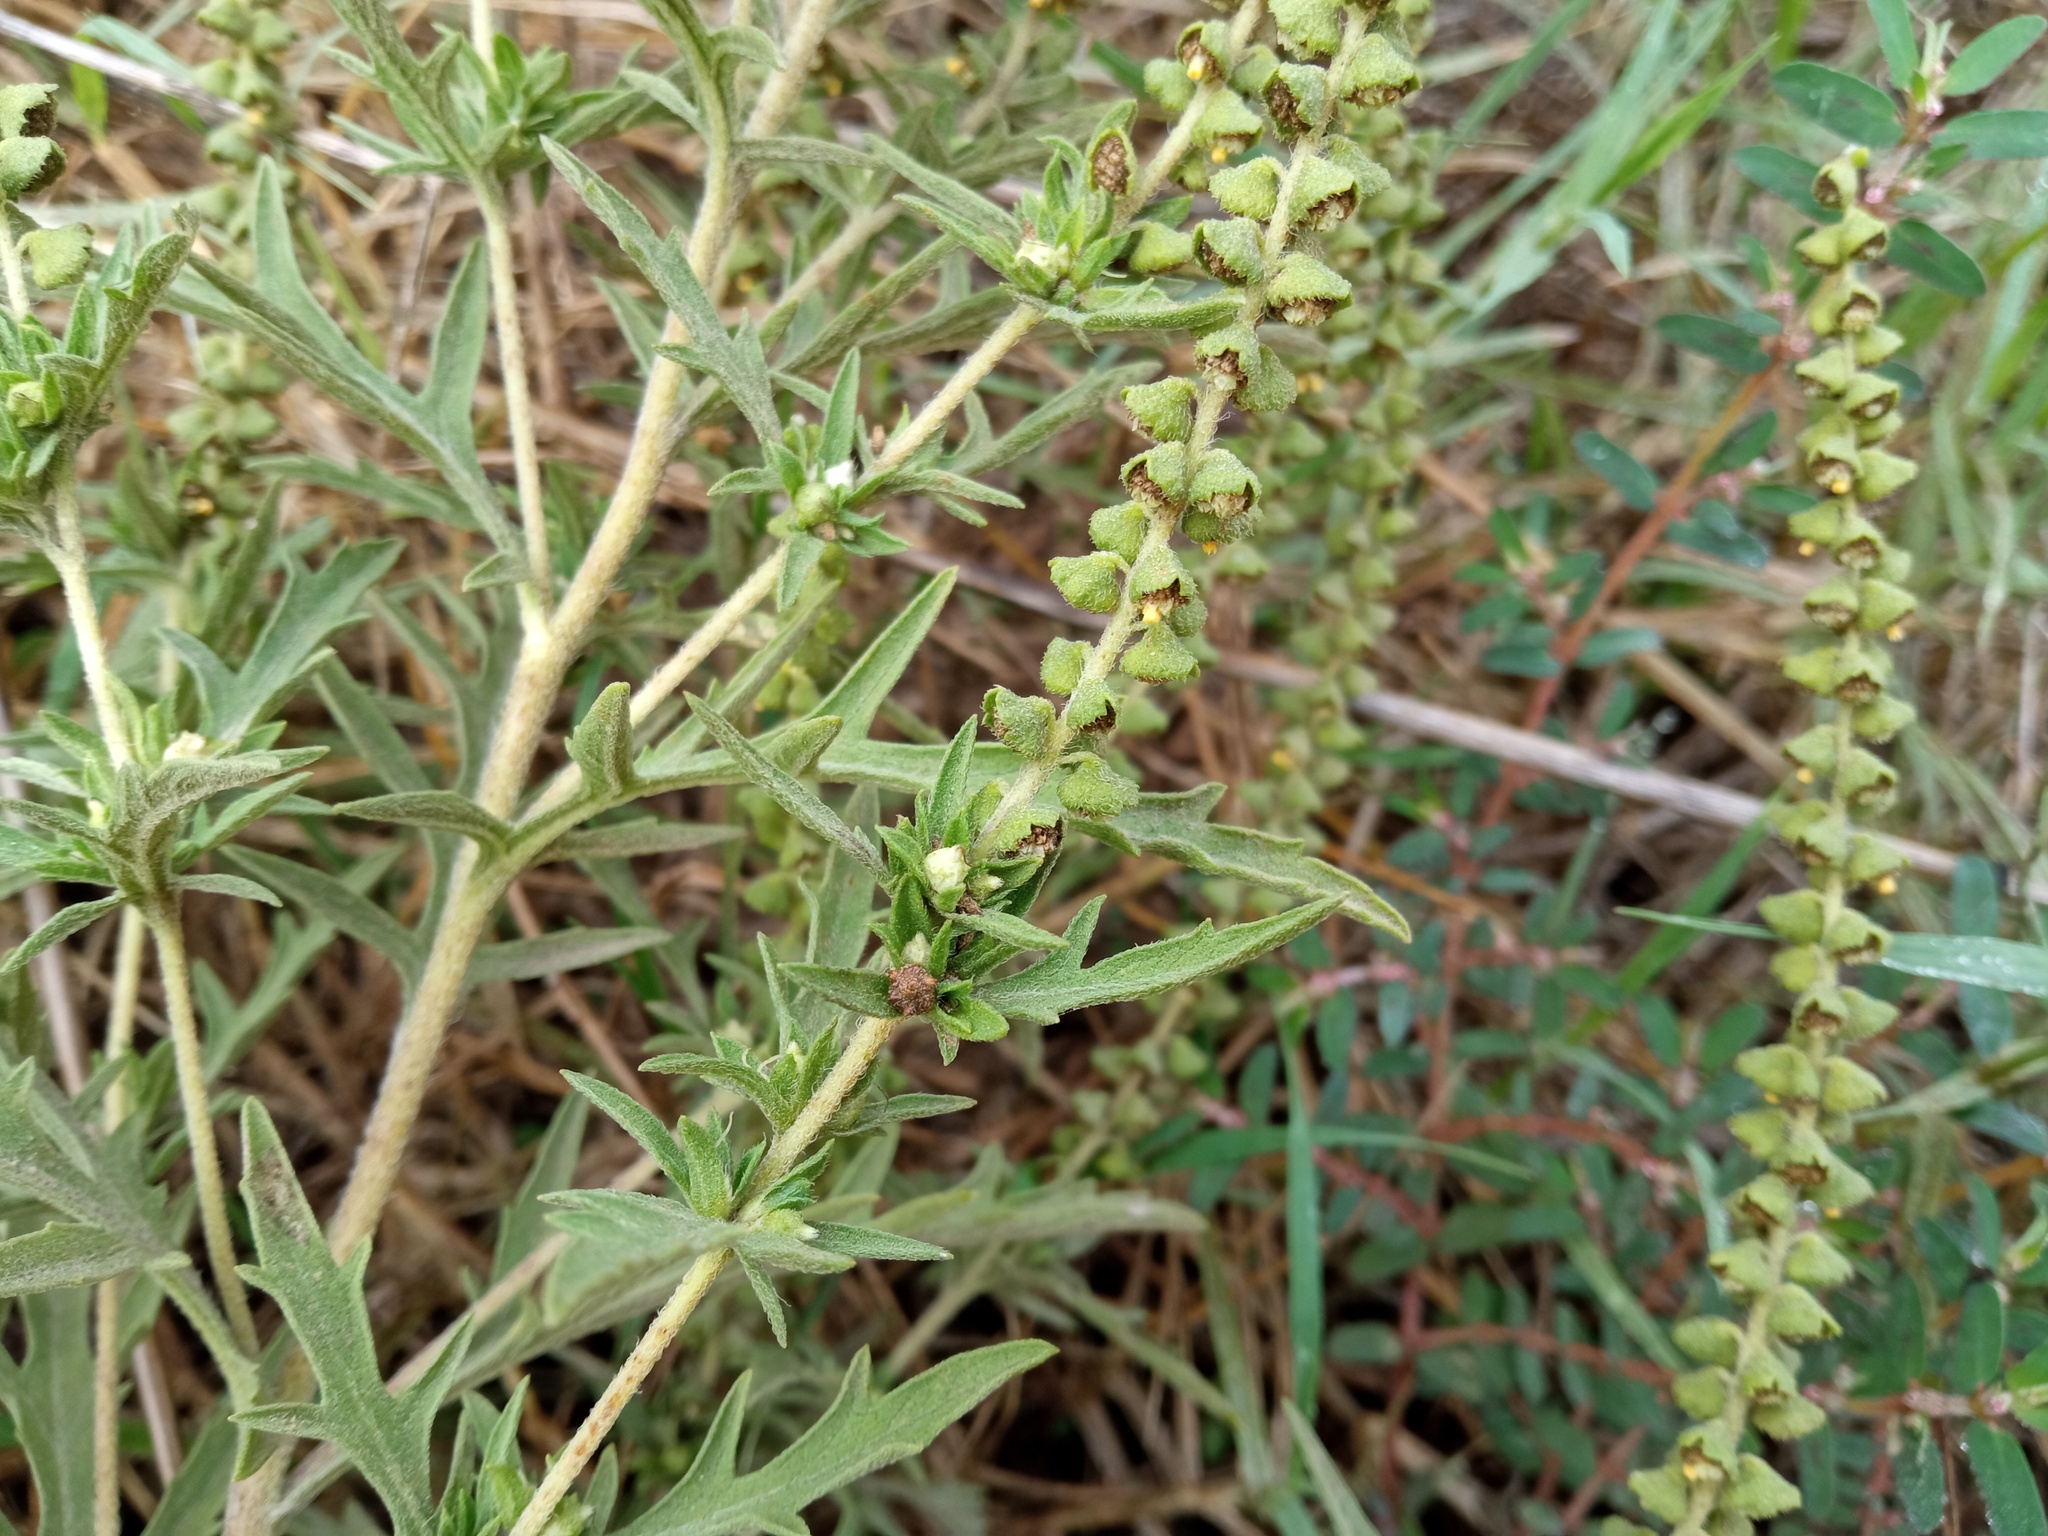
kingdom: Plantae
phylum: Tracheophyta
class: Magnoliopsida
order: Asterales
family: Asteraceae
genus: Ambrosia
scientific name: Ambrosia psilostachya
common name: Perennial ragweed
